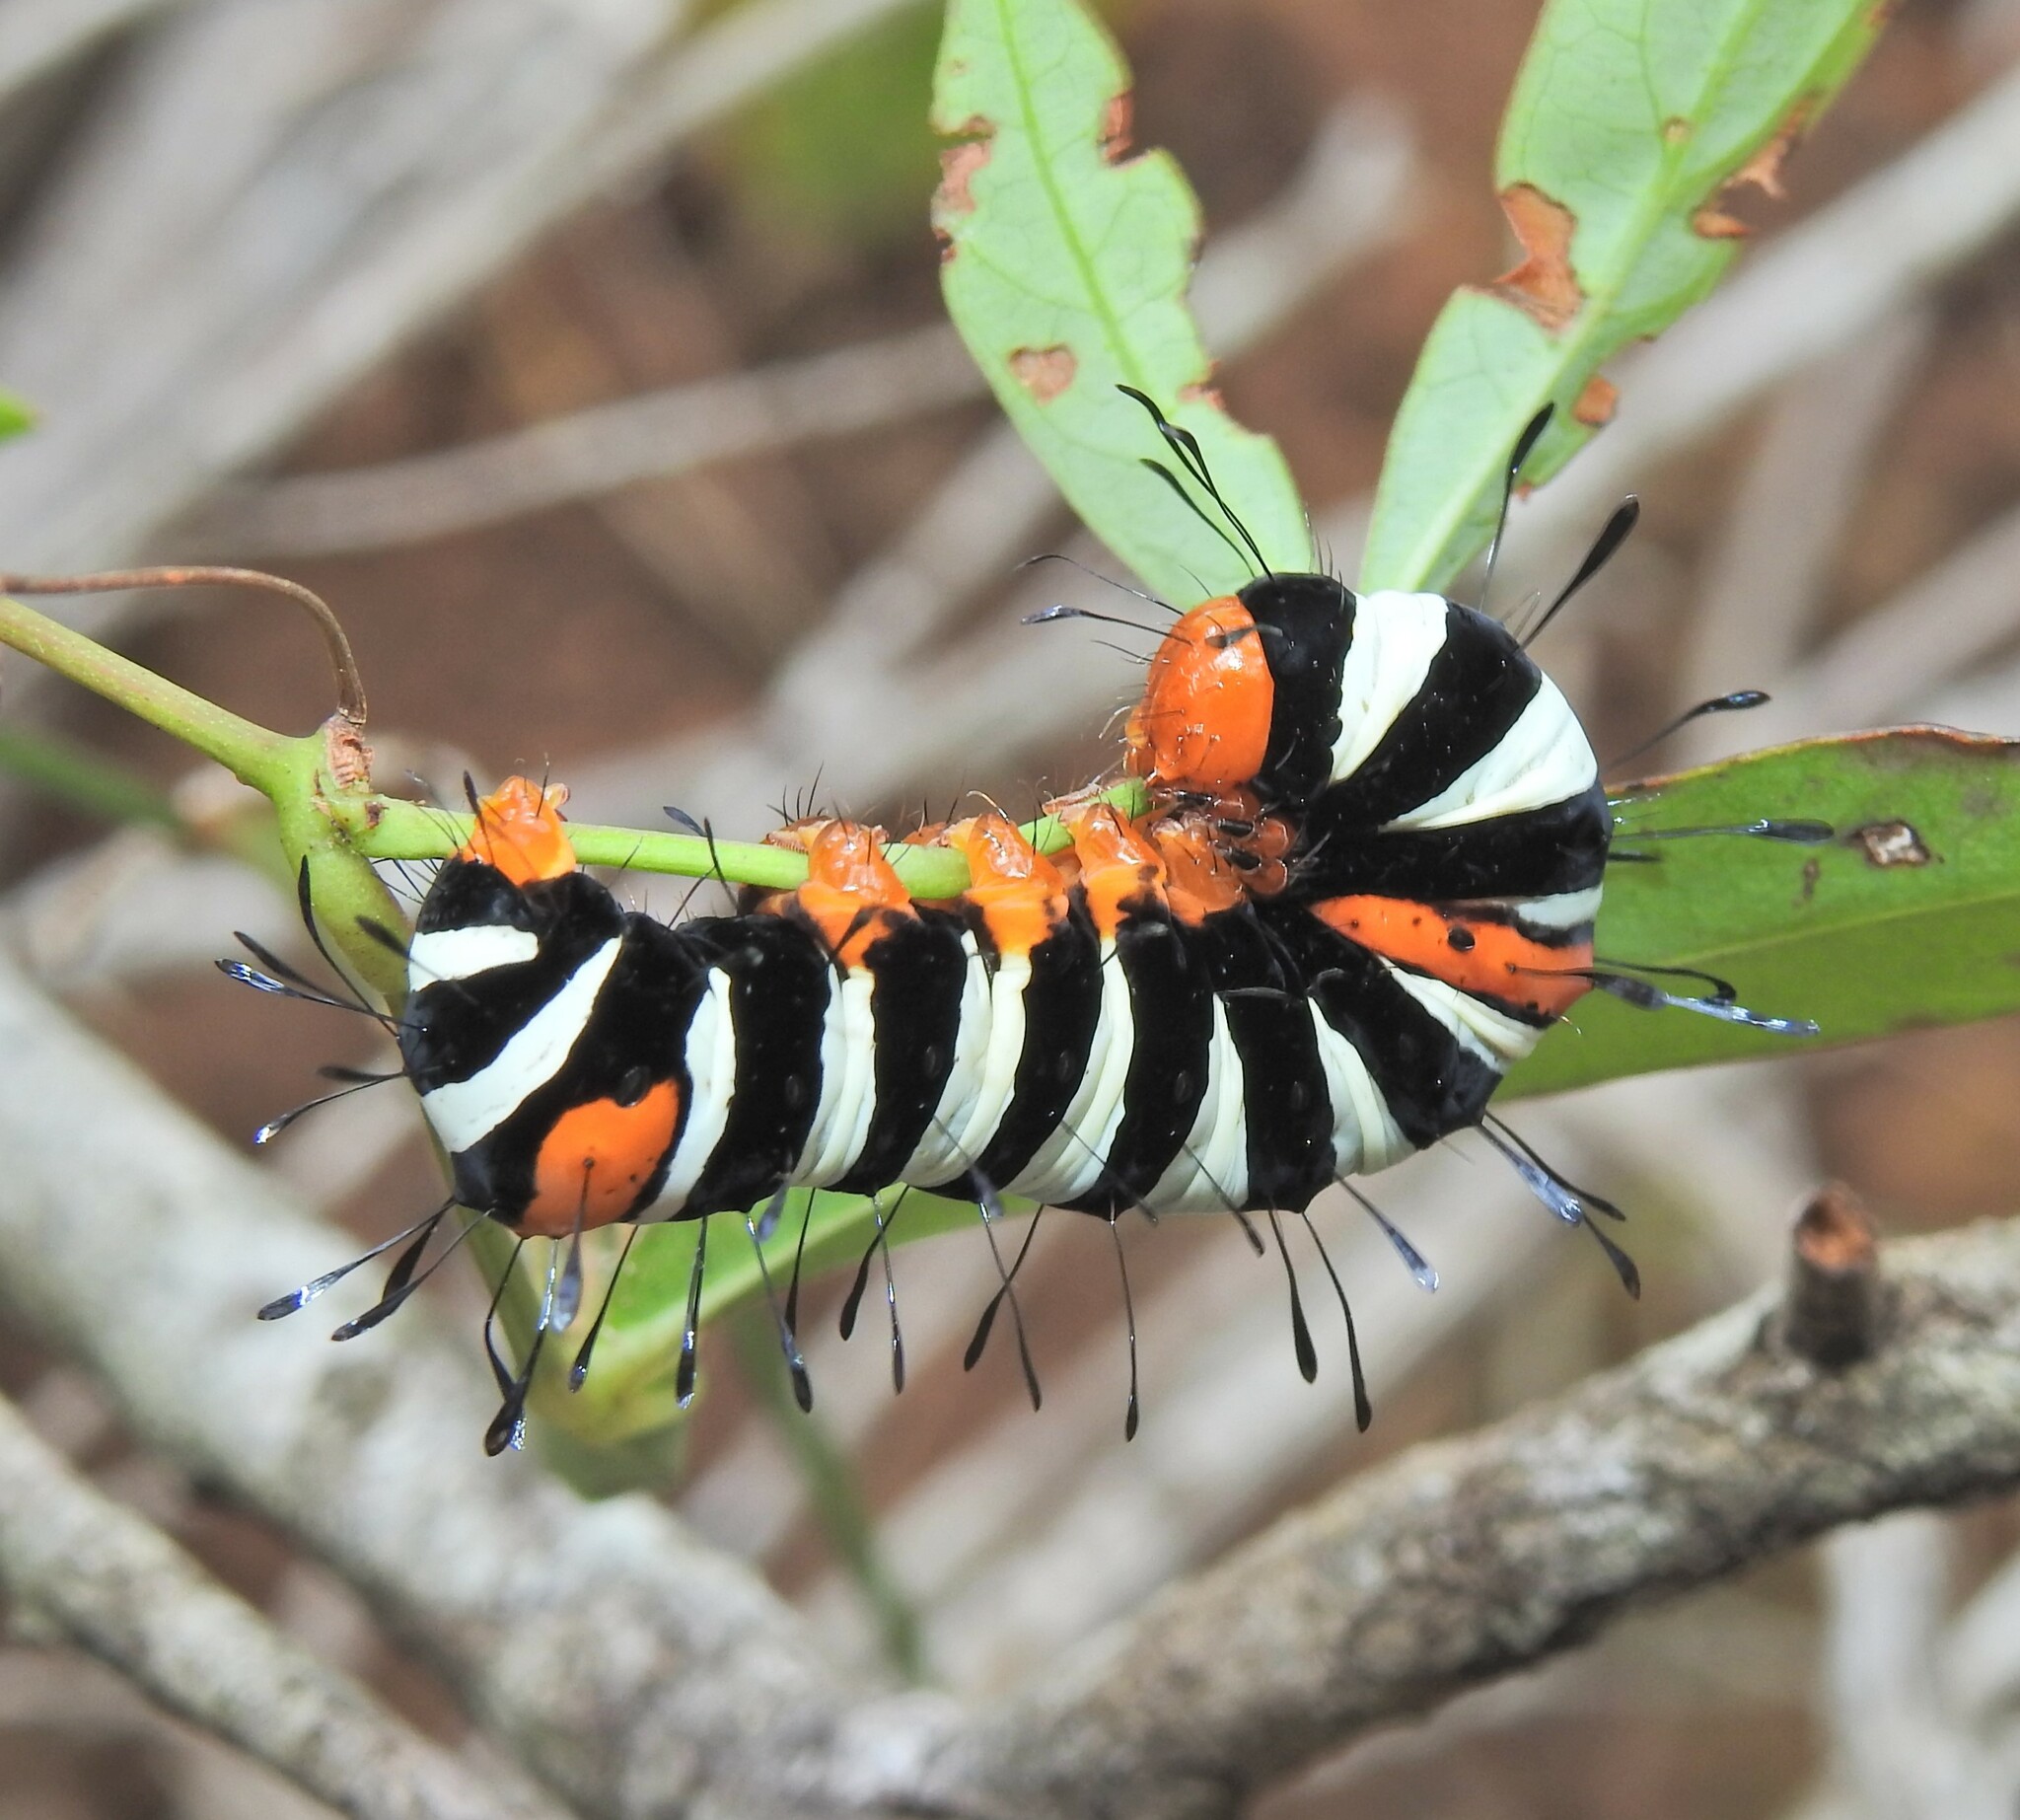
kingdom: Animalia
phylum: Arthropoda
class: Insecta
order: Lepidoptera
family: Noctuidae
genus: Agarista
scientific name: Agarista agricola
